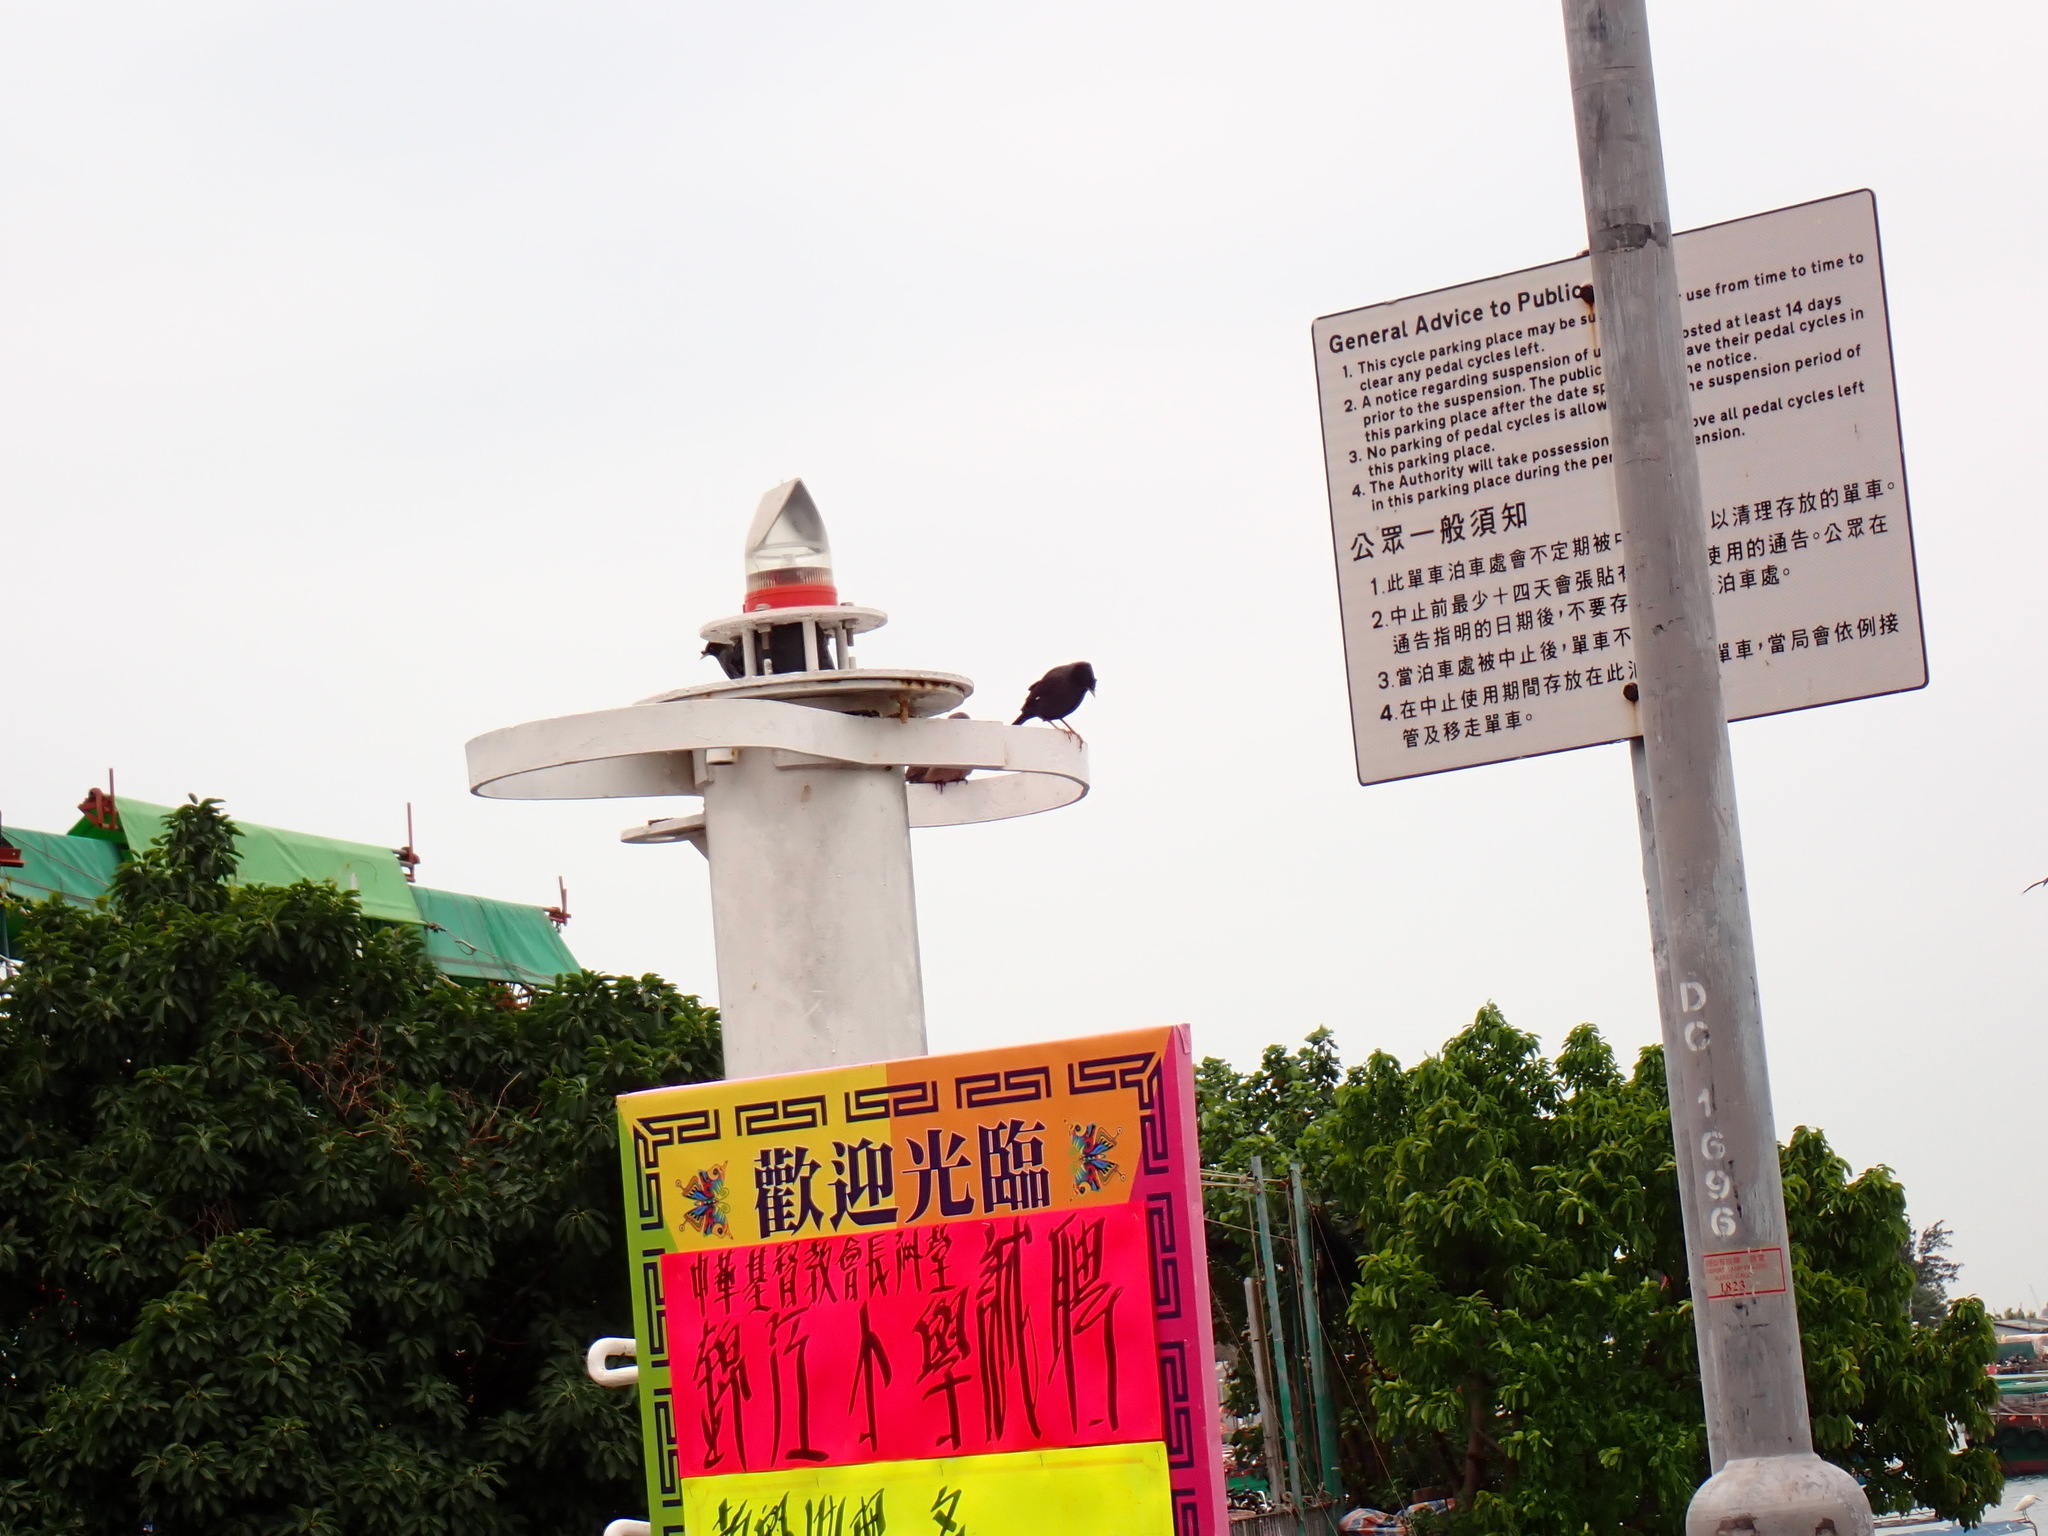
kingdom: Animalia
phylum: Chordata
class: Aves
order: Passeriformes
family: Sturnidae
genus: Acridotheres
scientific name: Acridotheres cristatellus
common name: Crested myna
